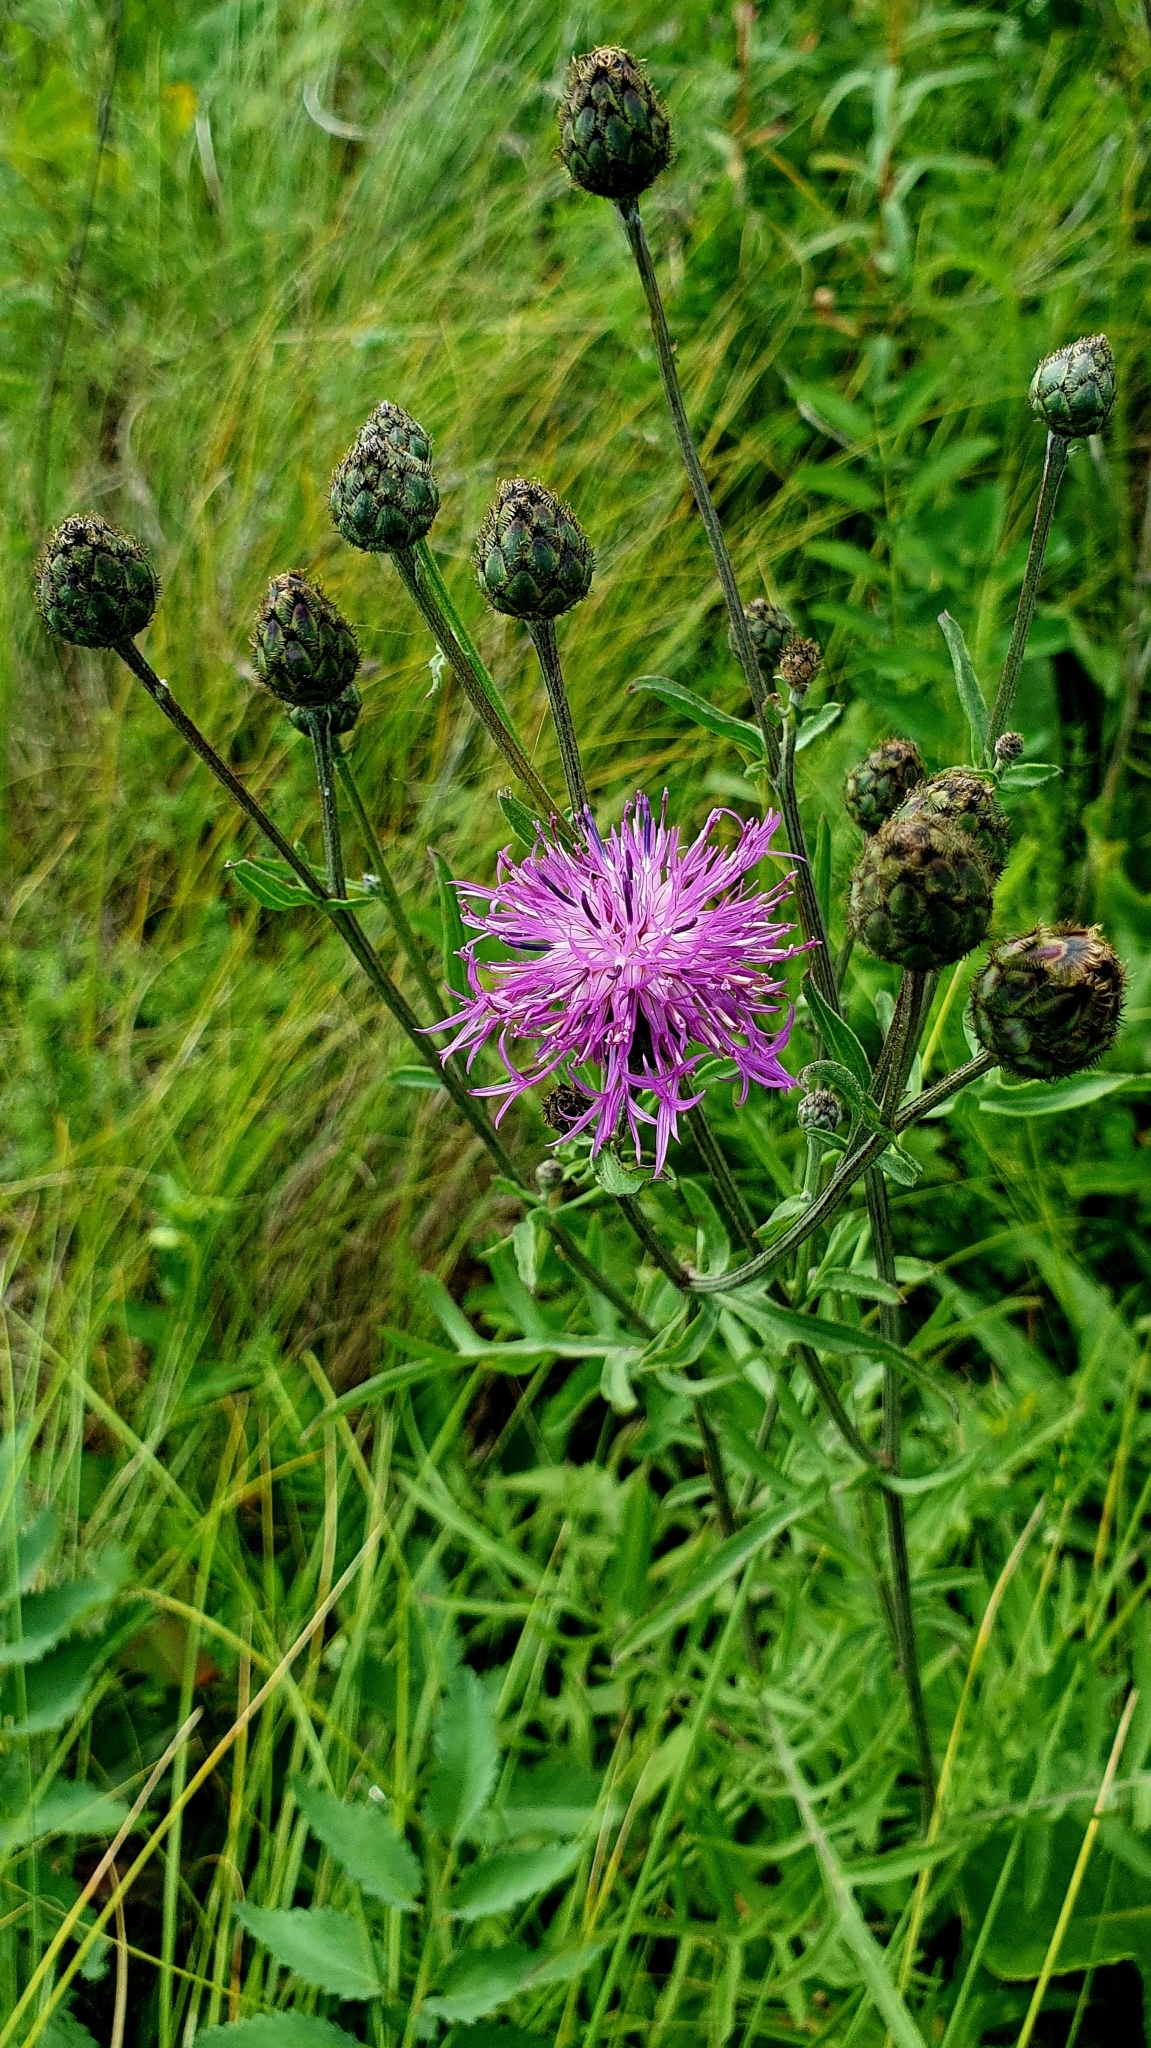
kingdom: Plantae
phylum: Tracheophyta
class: Magnoliopsida
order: Asterales
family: Asteraceae
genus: Centaurea
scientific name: Centaurea scabiosa
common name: Greater knapweed
